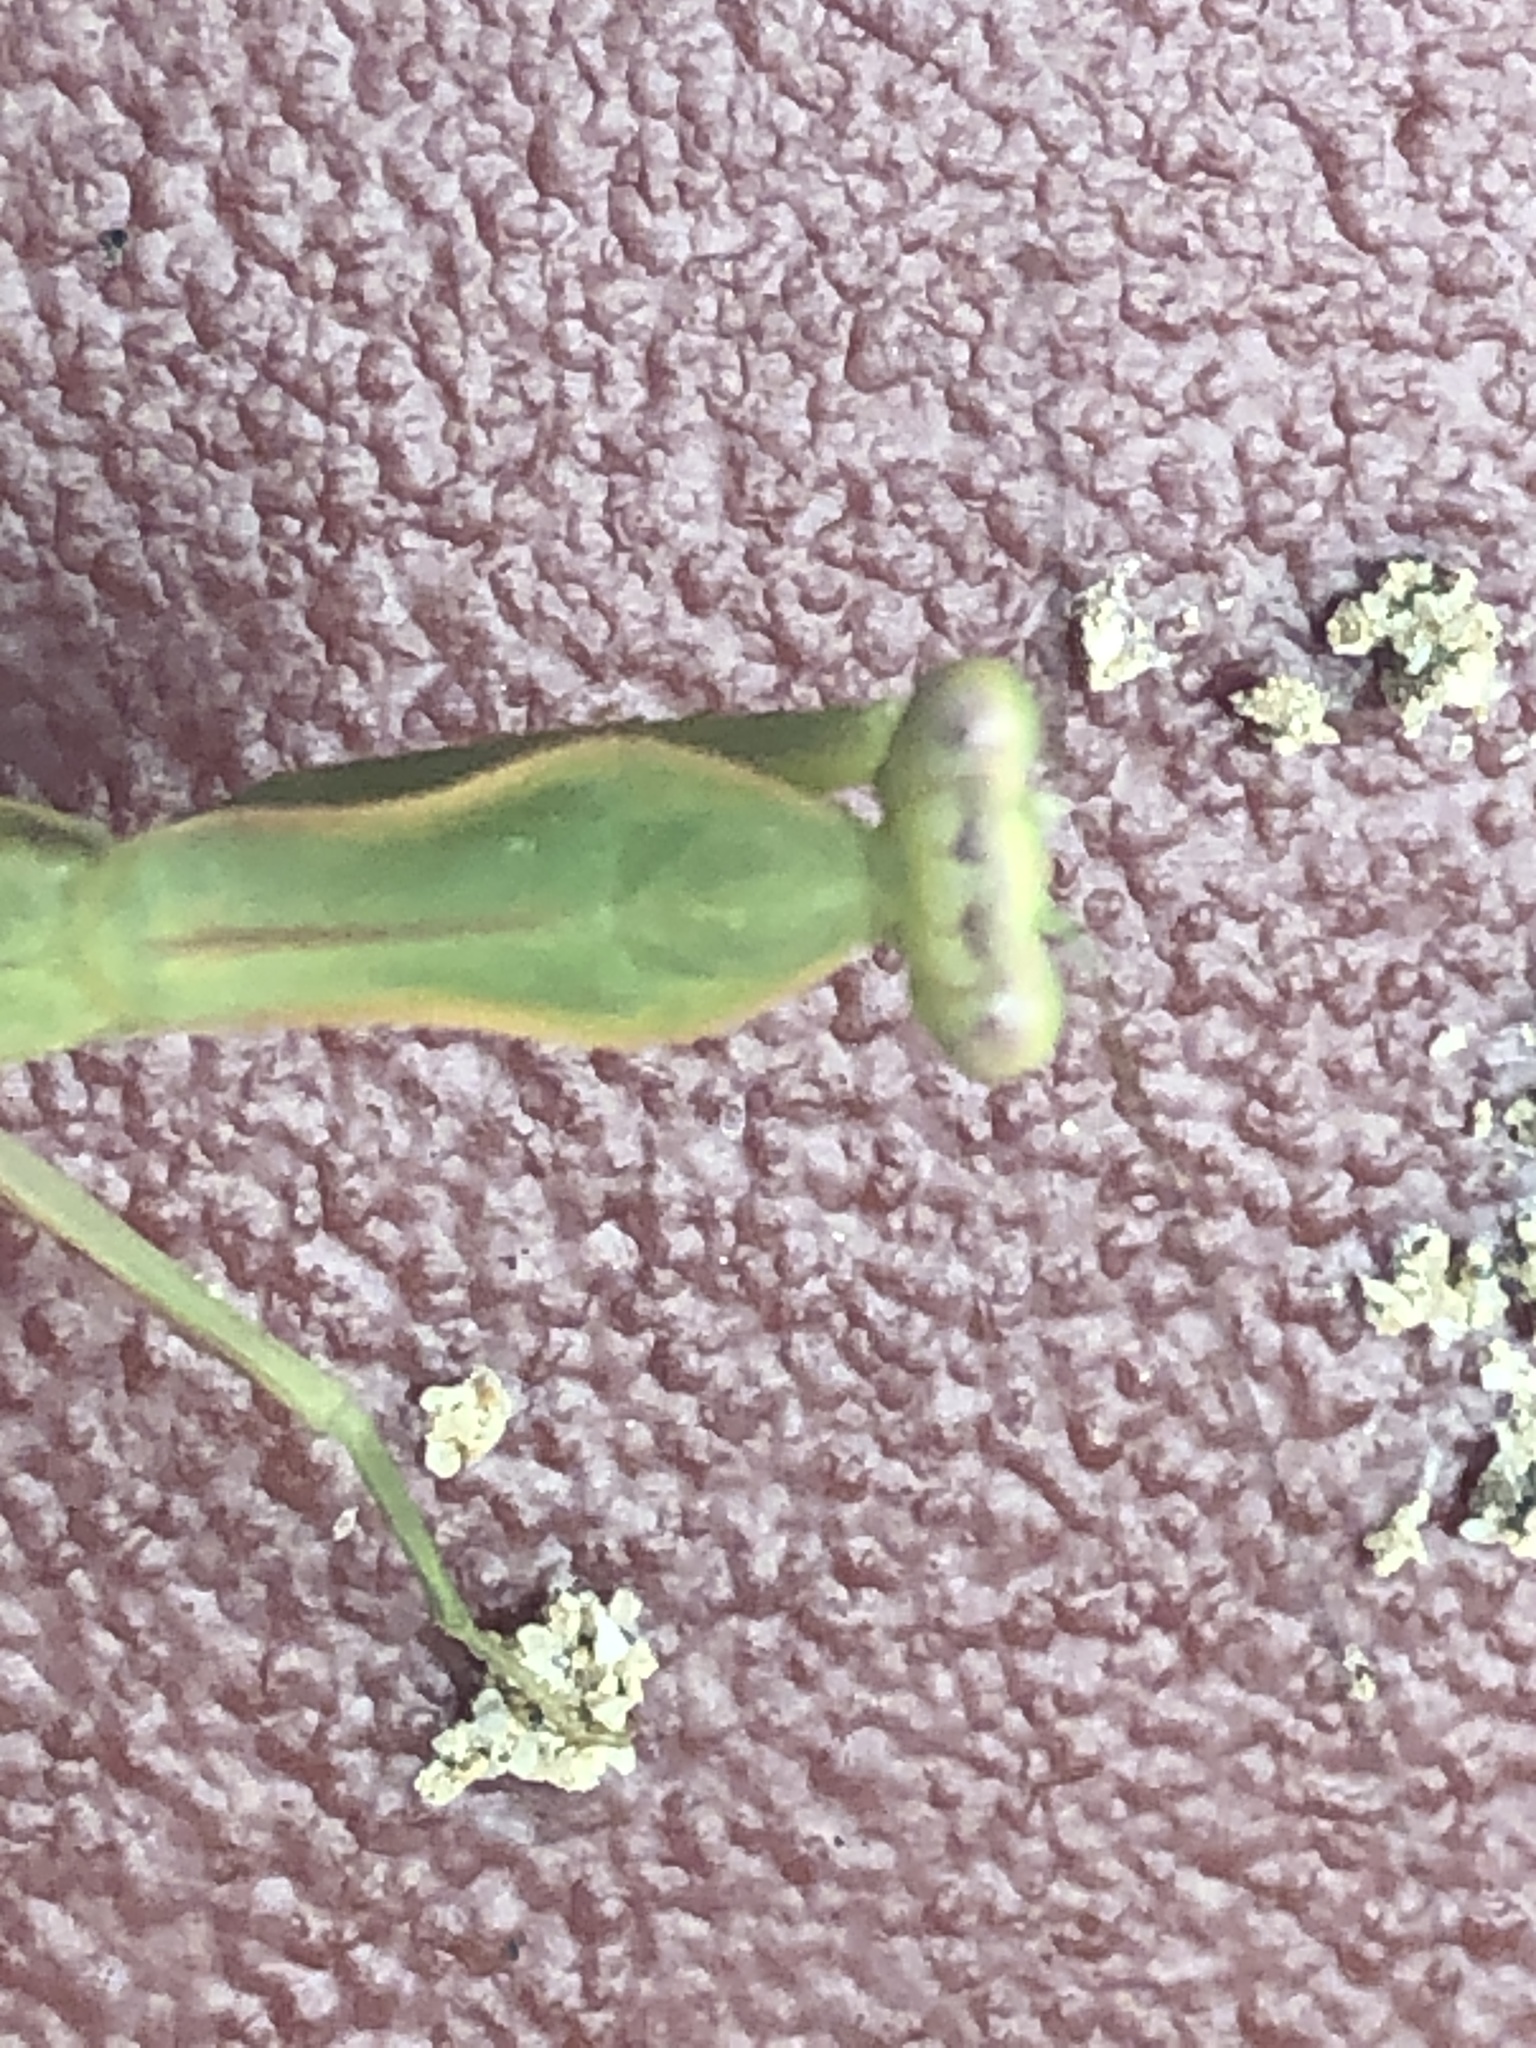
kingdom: Animalia
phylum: Arthropoda
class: Insecta
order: Mantodea
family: Mantidae
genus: Hierodula
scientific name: Hierodula patellifera
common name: Asian mantis
